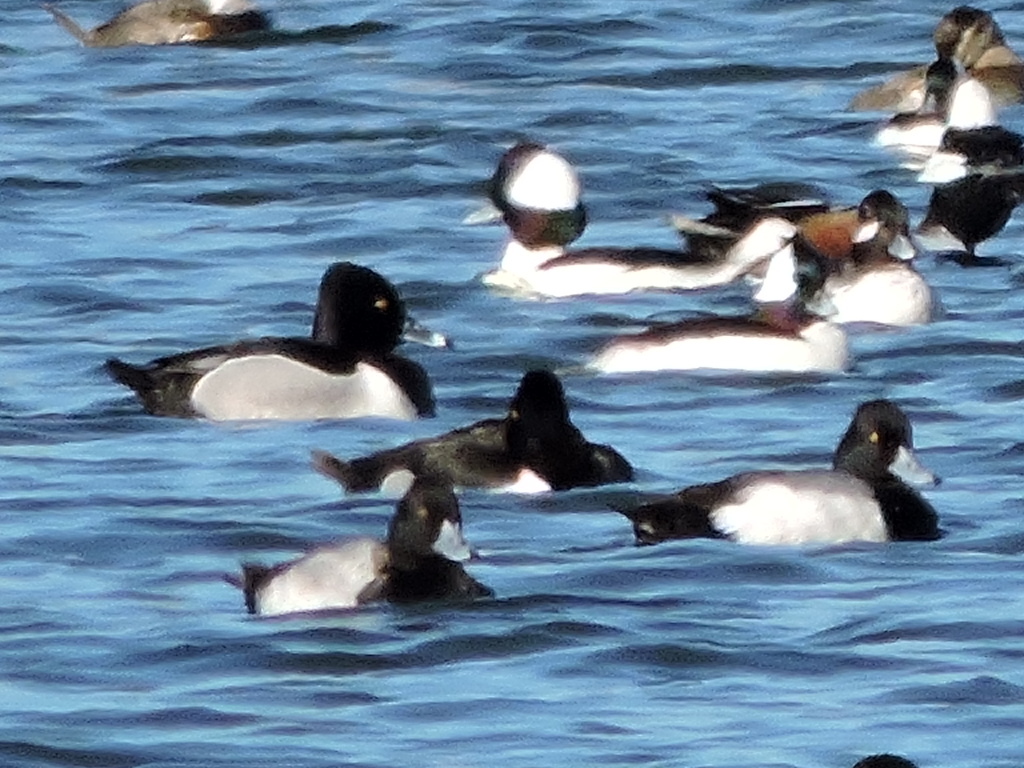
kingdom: Animalia
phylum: Chordata
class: Aves
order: Anseriformes
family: Anatidae
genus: Aythya
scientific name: Aythya affinis
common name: Lesser scaup
